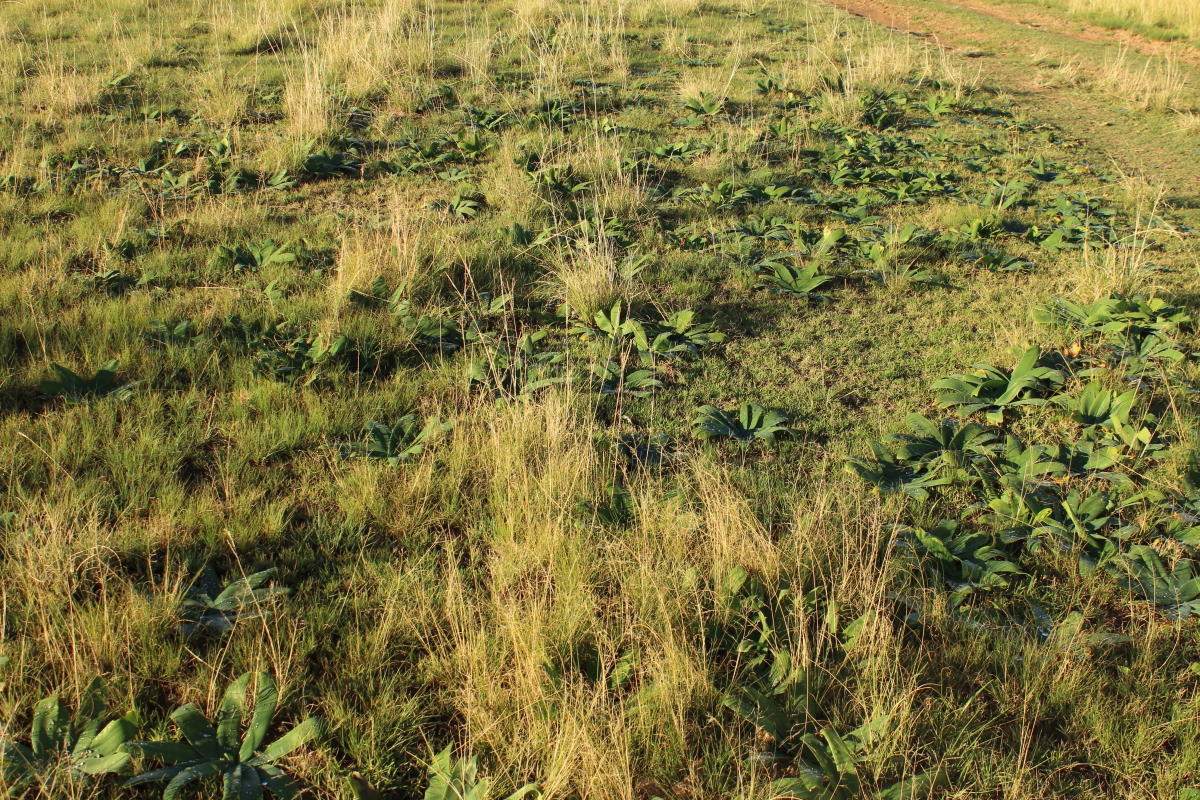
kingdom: Plantae
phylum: Tracheophyta
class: Liliopsida
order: Asparagales
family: Amaryllidaceae
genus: Ammocharis
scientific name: Ammocharis coranica
